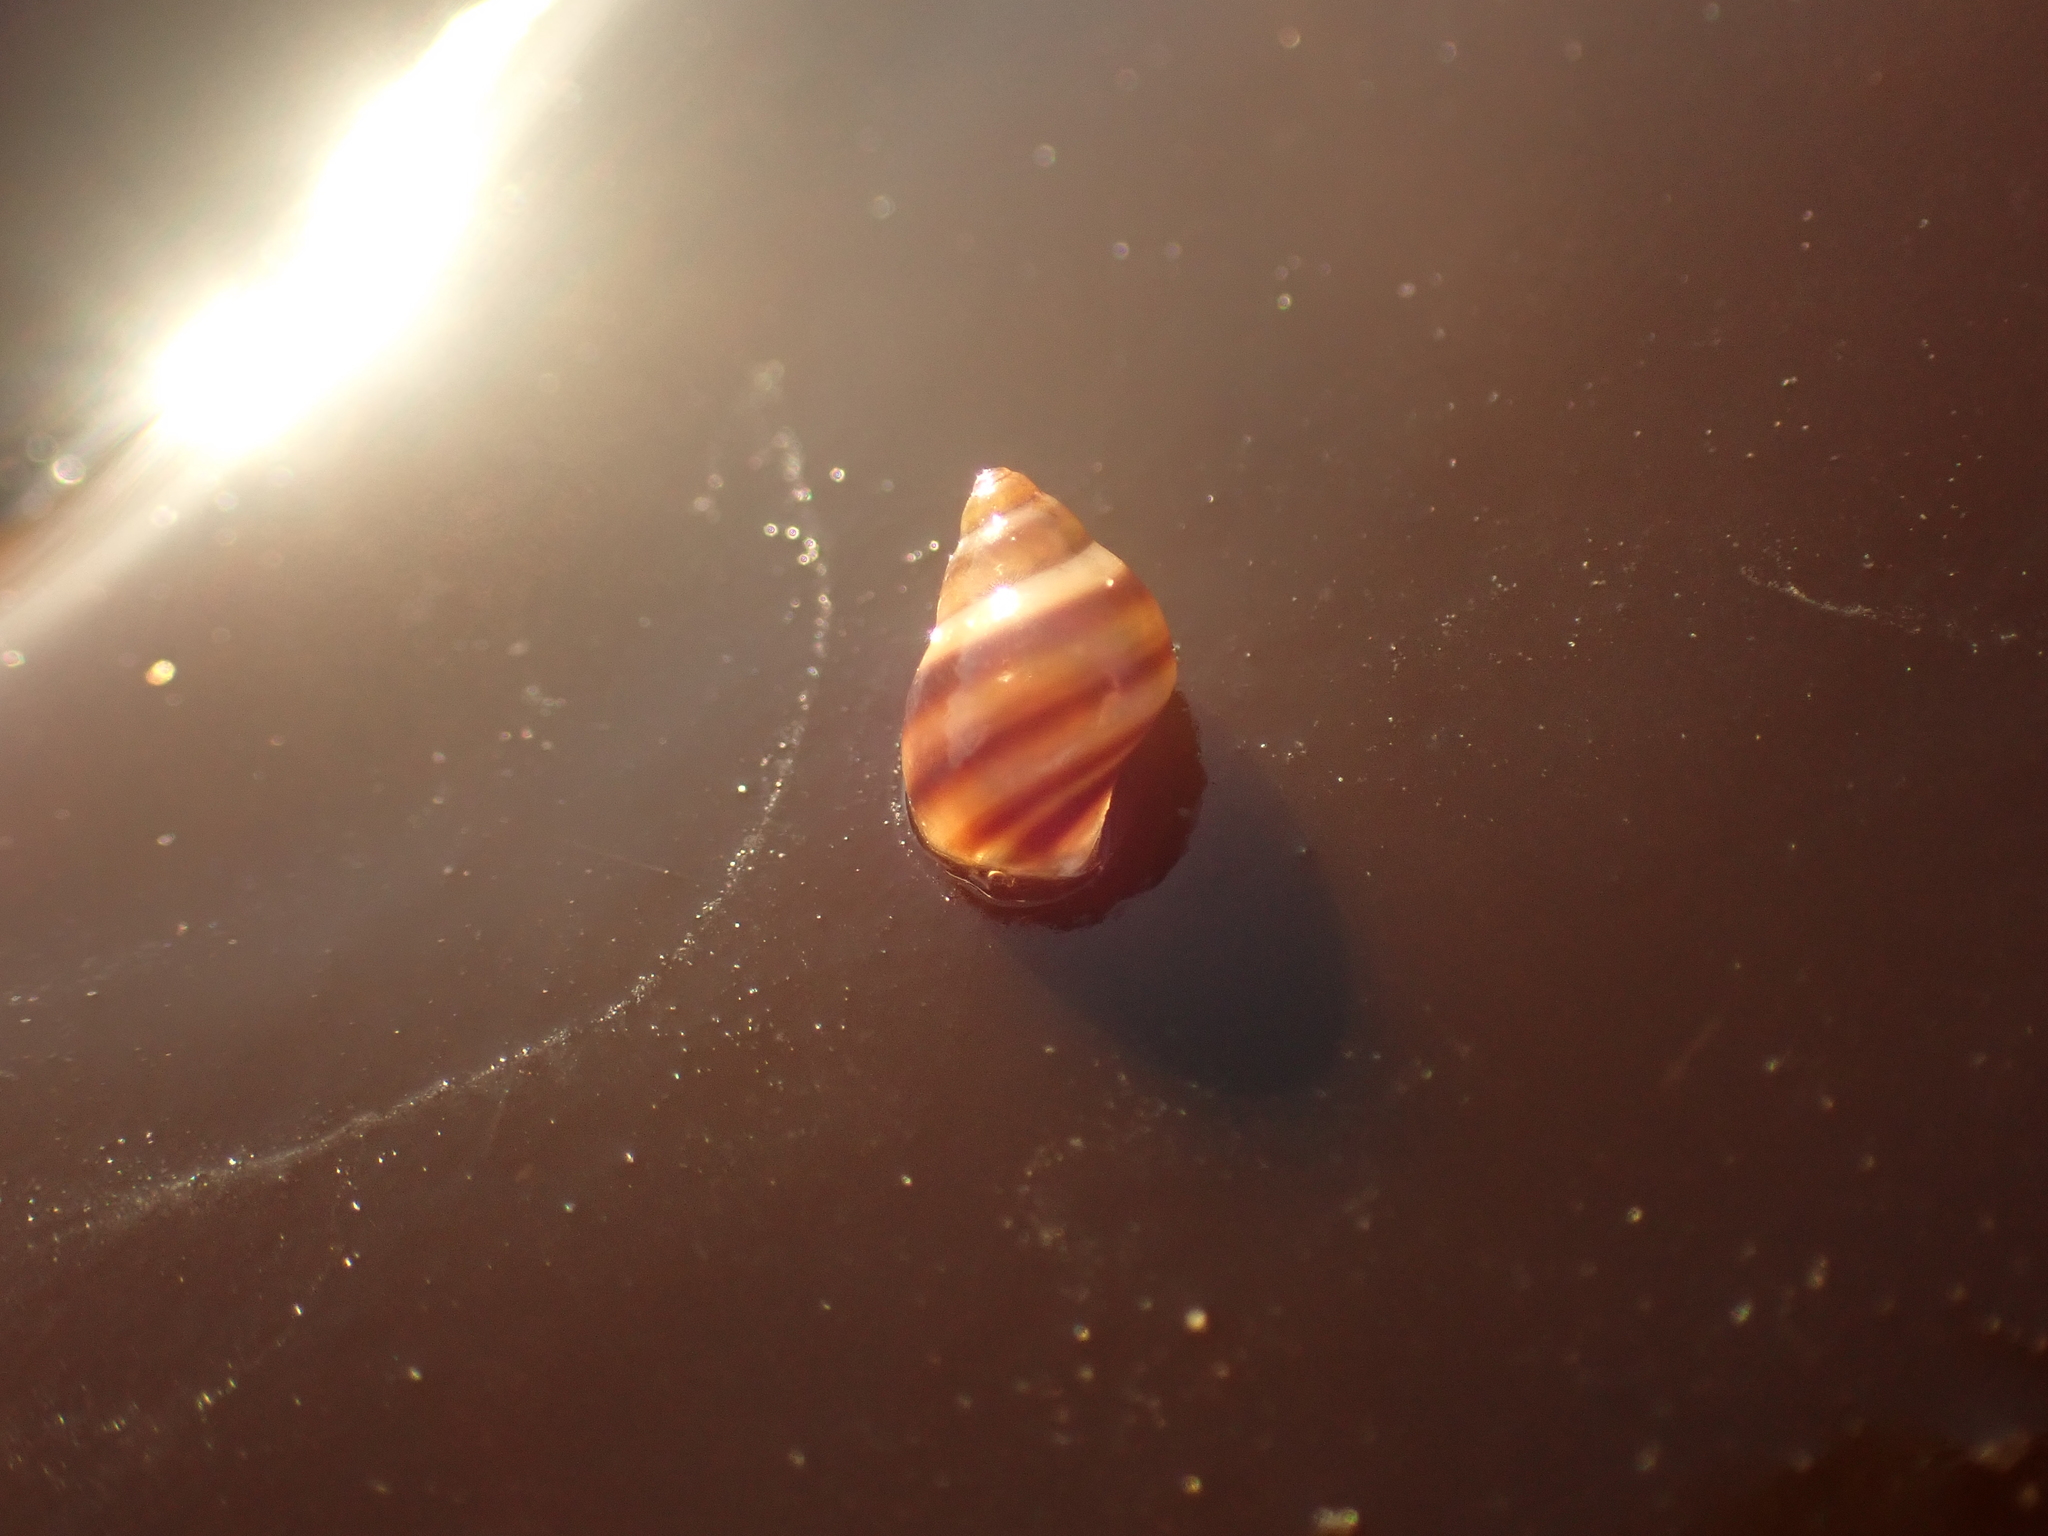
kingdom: Animalia
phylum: Mollusca
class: Gastropoda
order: Littorinimorpha
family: Littorinidae
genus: Lacuna
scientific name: Lacuna vincta
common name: Banded chink shell
